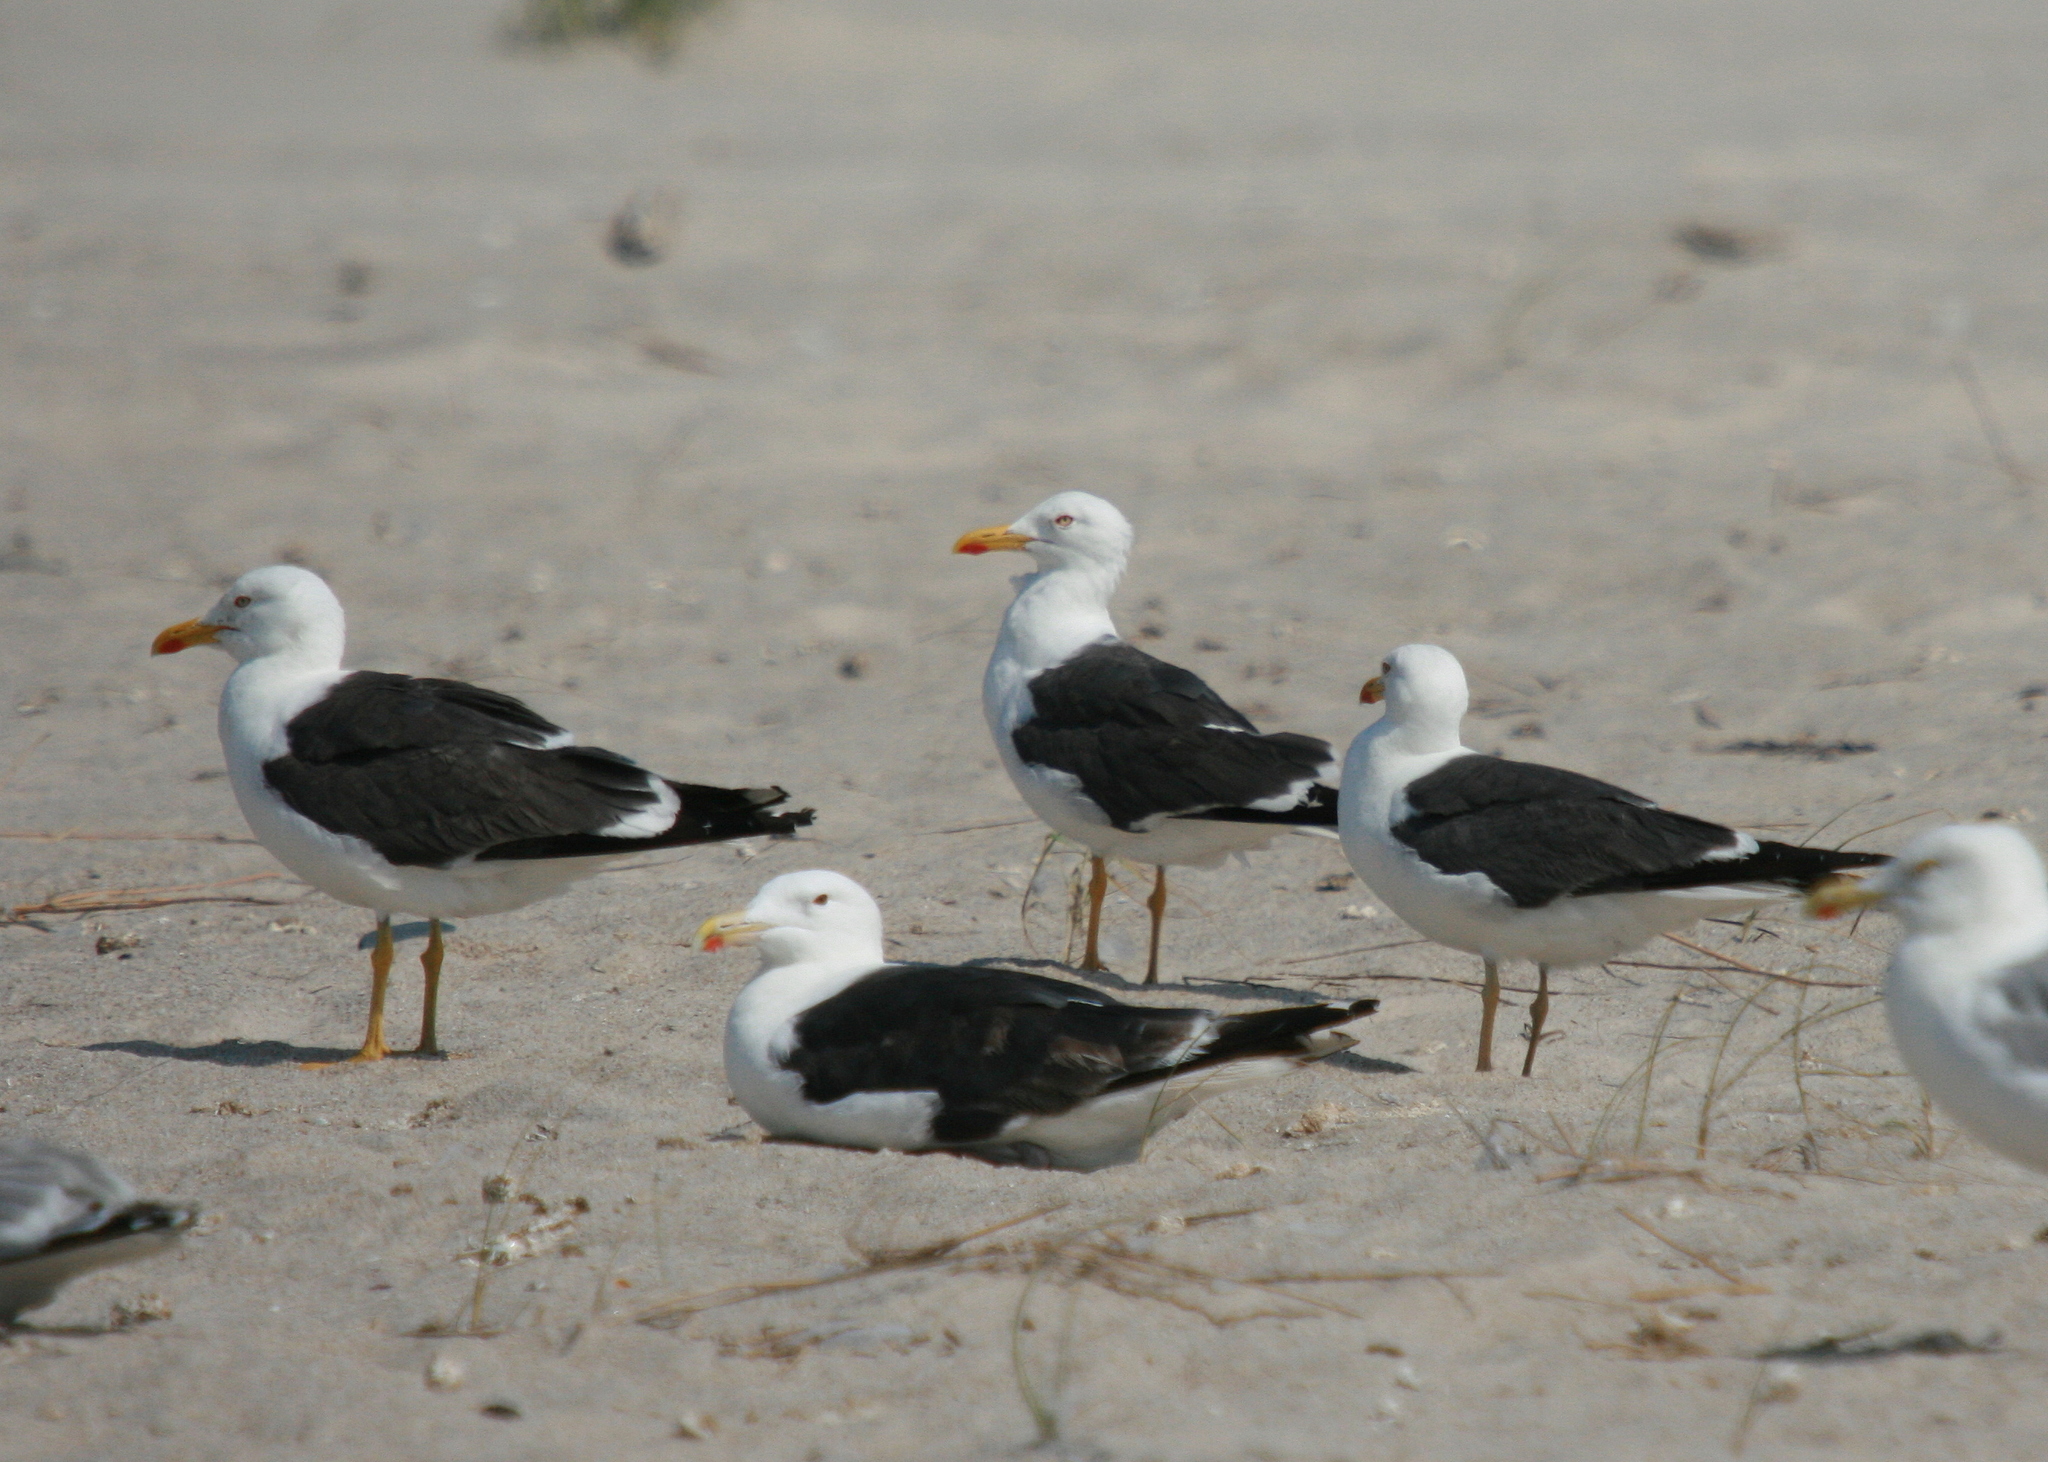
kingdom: Animalia
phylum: Chordata
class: Aves
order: Charadriiformes
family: Laridae
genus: Larus
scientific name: Larus fuscus
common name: Lesser black-backed gull
